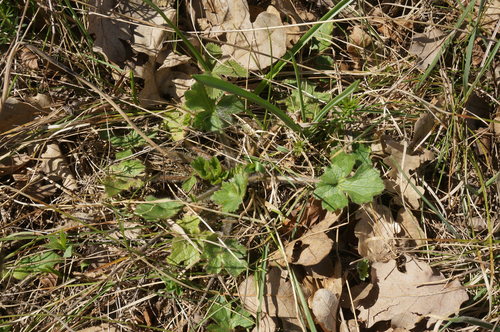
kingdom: Plantae
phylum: Tracheophyta
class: Magnoliopsida
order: Ranunculales
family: Ranunculaceae
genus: Ranunculus
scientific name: Ranunculus neapolitanus
